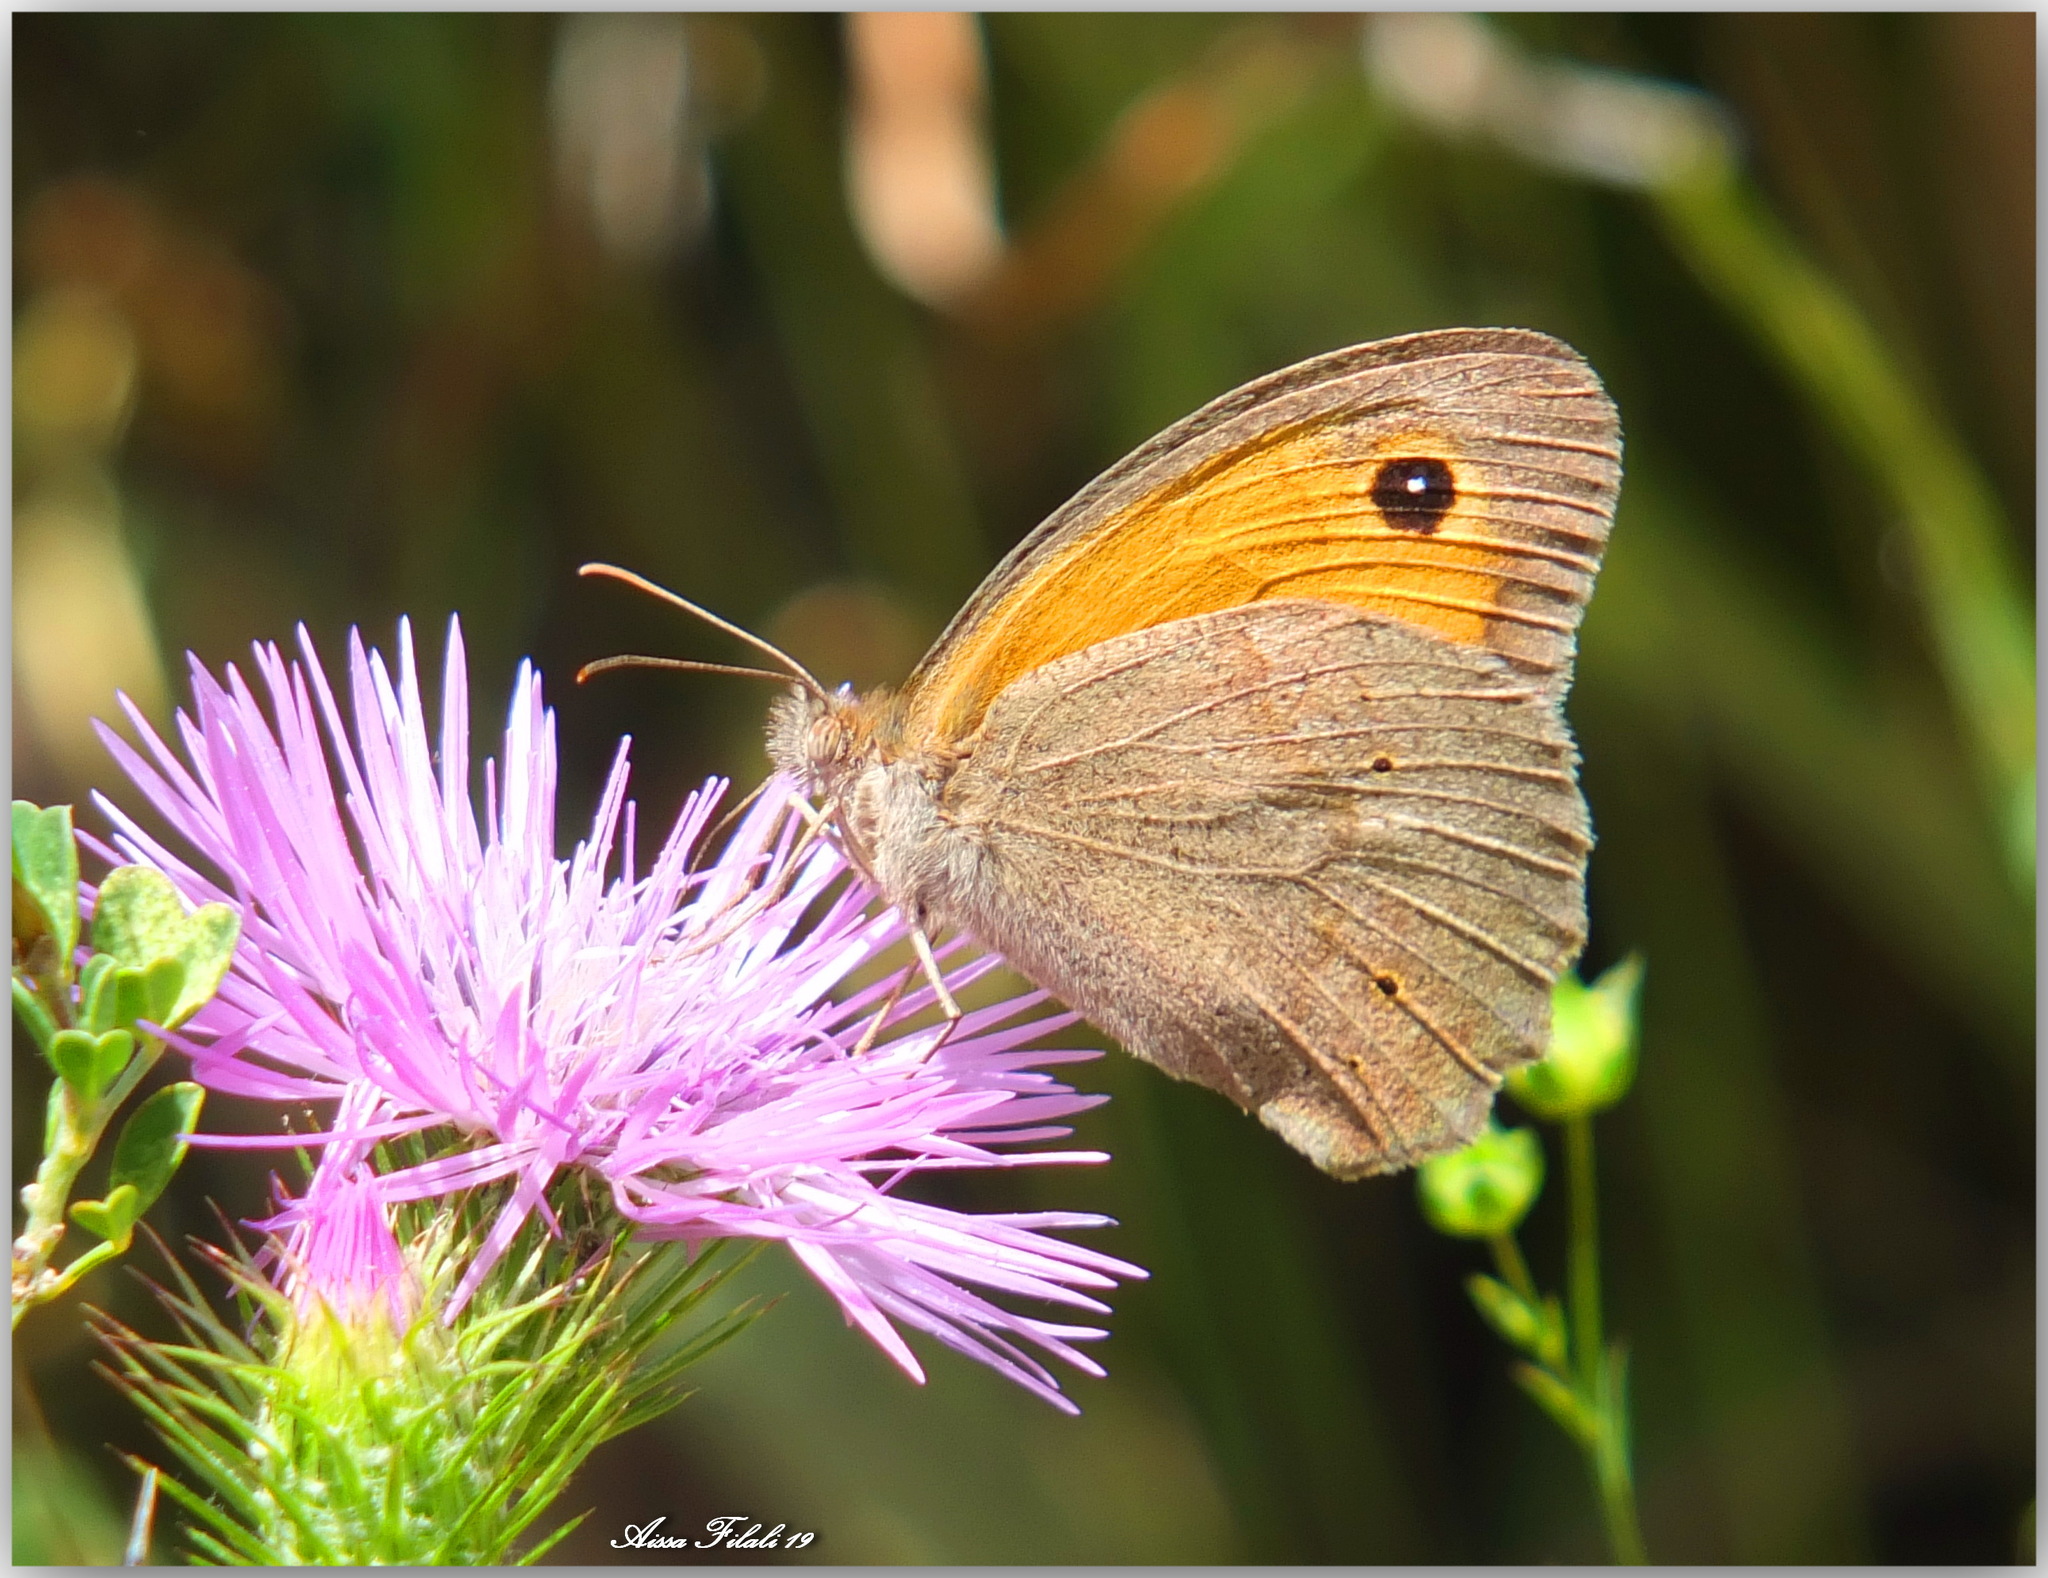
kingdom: Animalia
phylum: Arthropoda
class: Insecta
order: Lepidoptera
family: Nymphalidae
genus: Maniola
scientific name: Maniola jurtina
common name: Meadow brown
